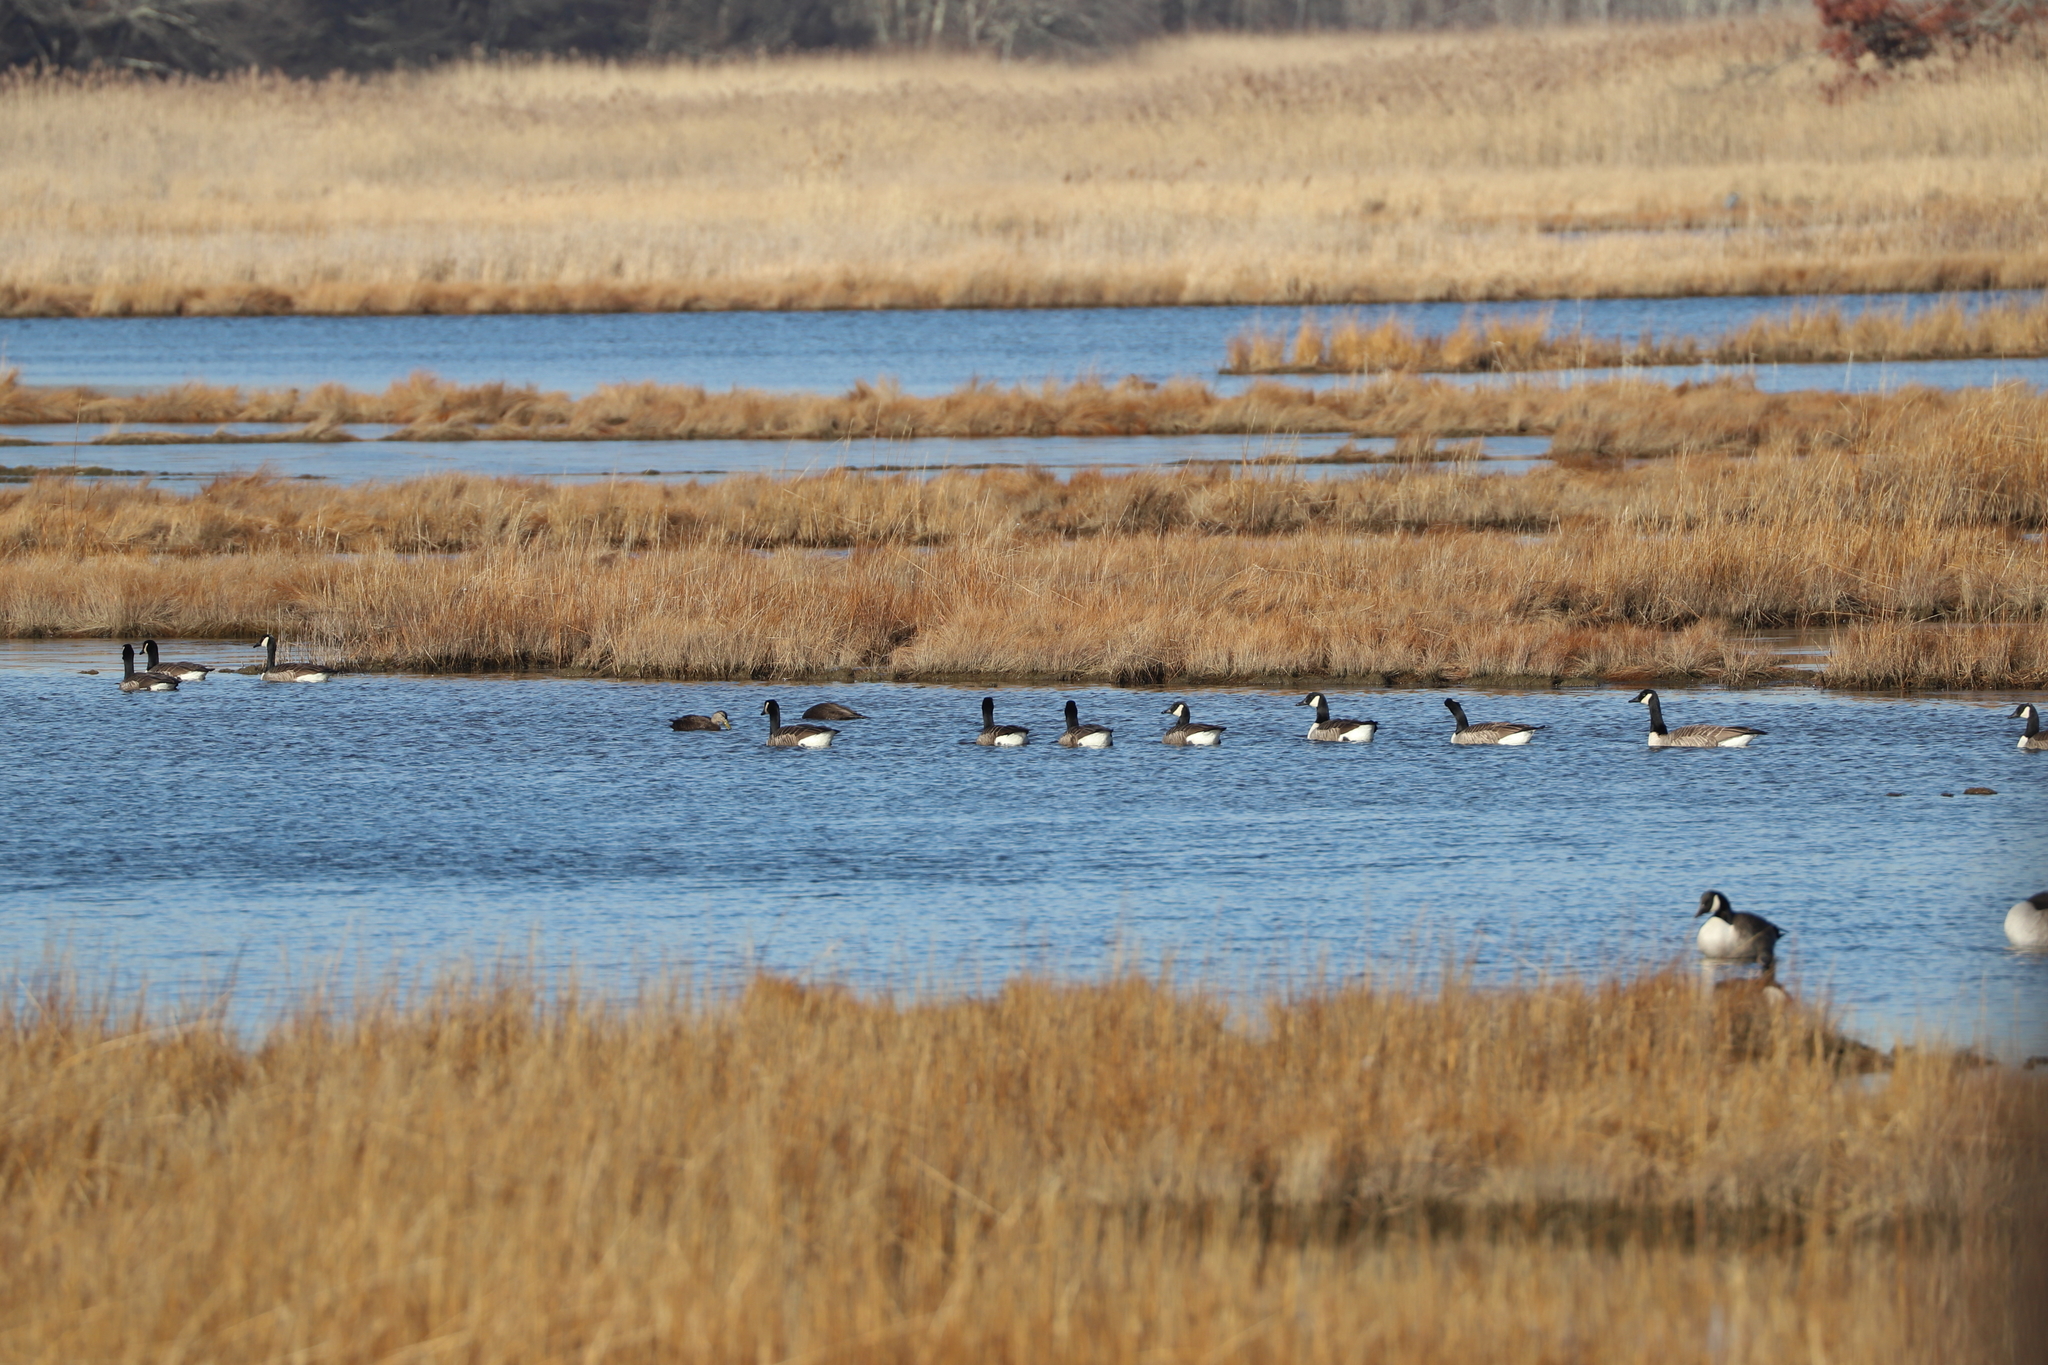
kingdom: Animalia
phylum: Chordata
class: Aves
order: Anseriformes
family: Anatidae
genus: Branta
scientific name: Branta canadensis
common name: Canada goose
